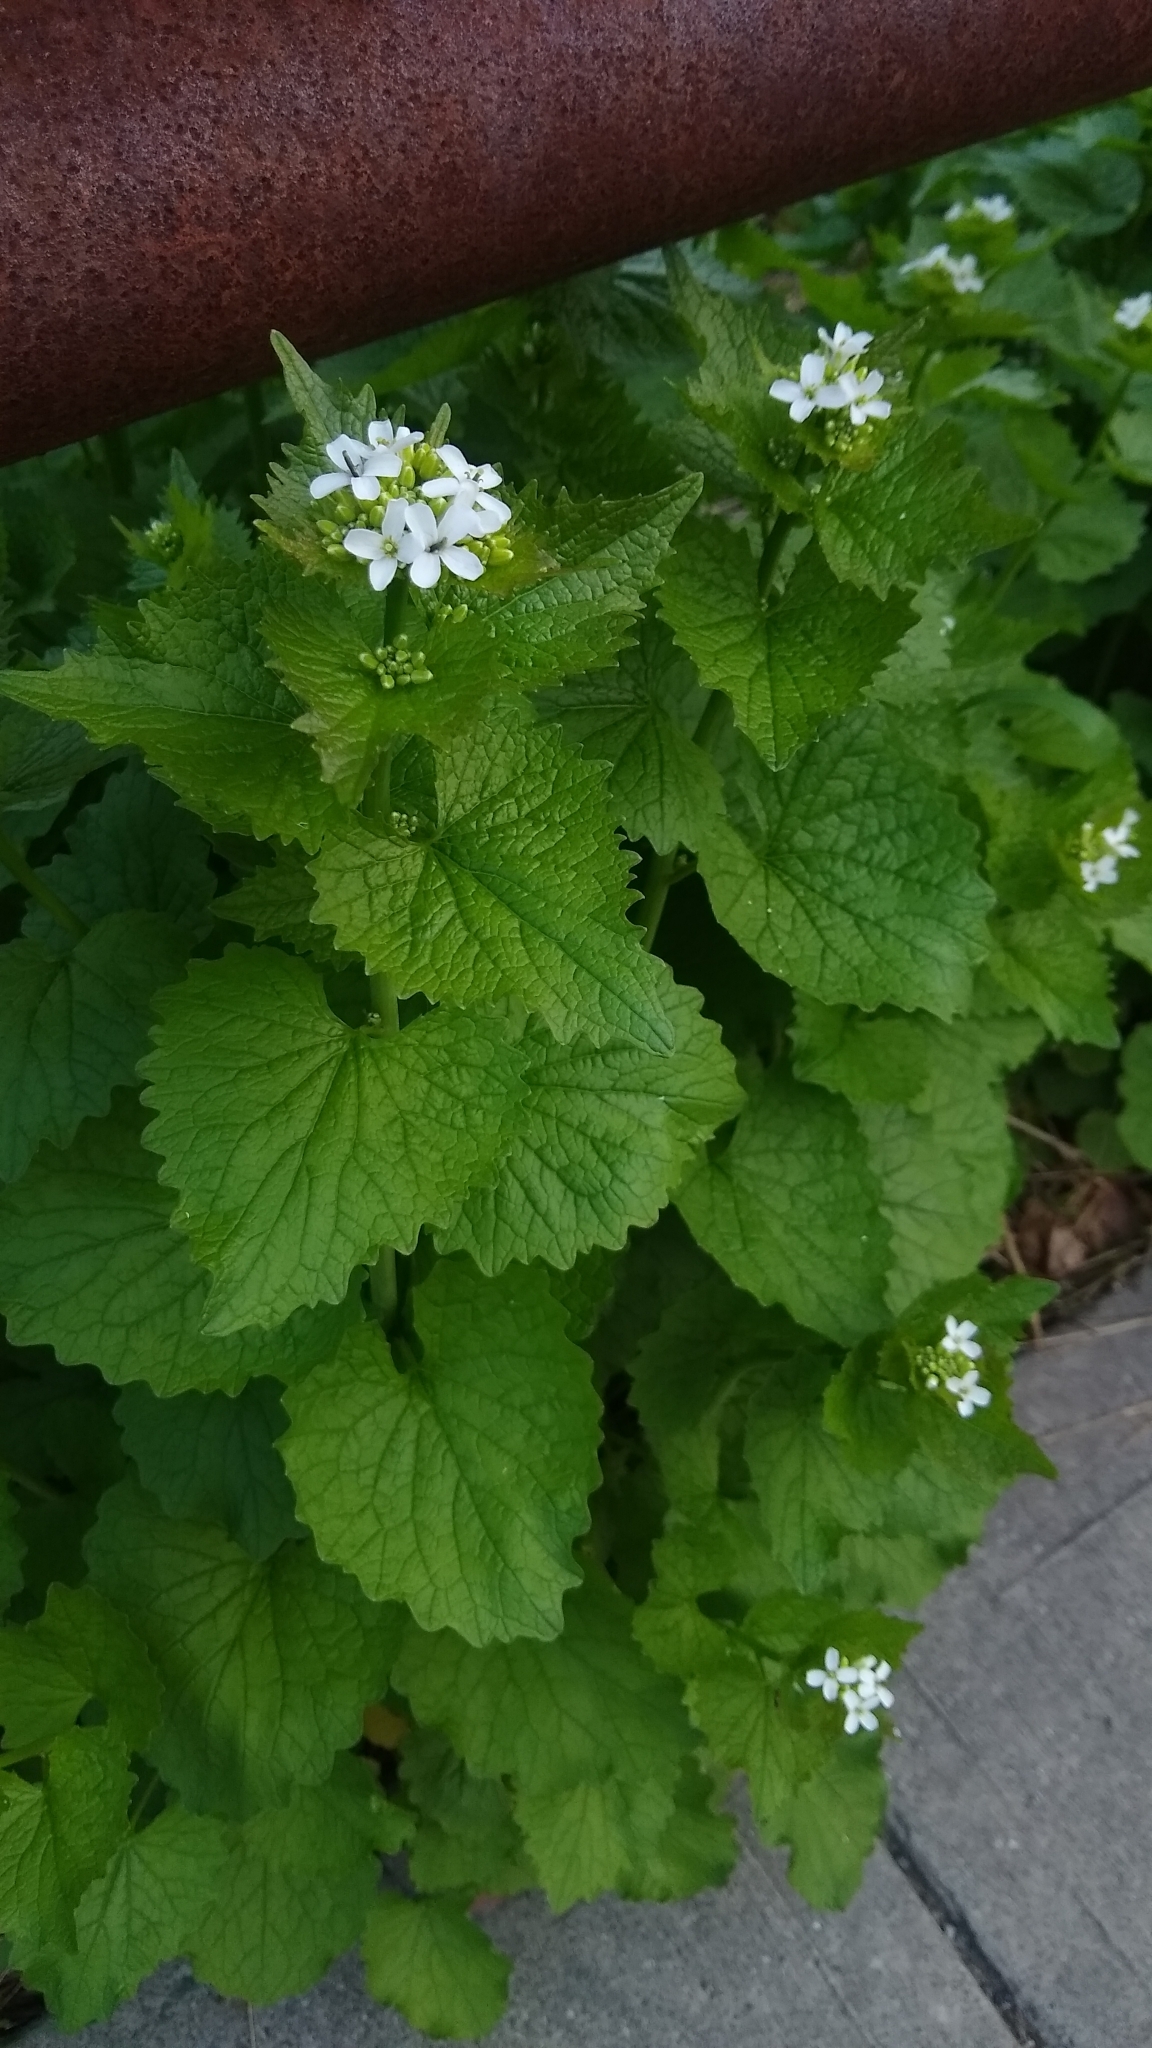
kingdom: Plantae
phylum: Tracheophyta
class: Magnoliopsida
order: Brassicales
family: Brassicaceae
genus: Alliaria
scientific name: Alliaria petiolata
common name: Garlic mustard
